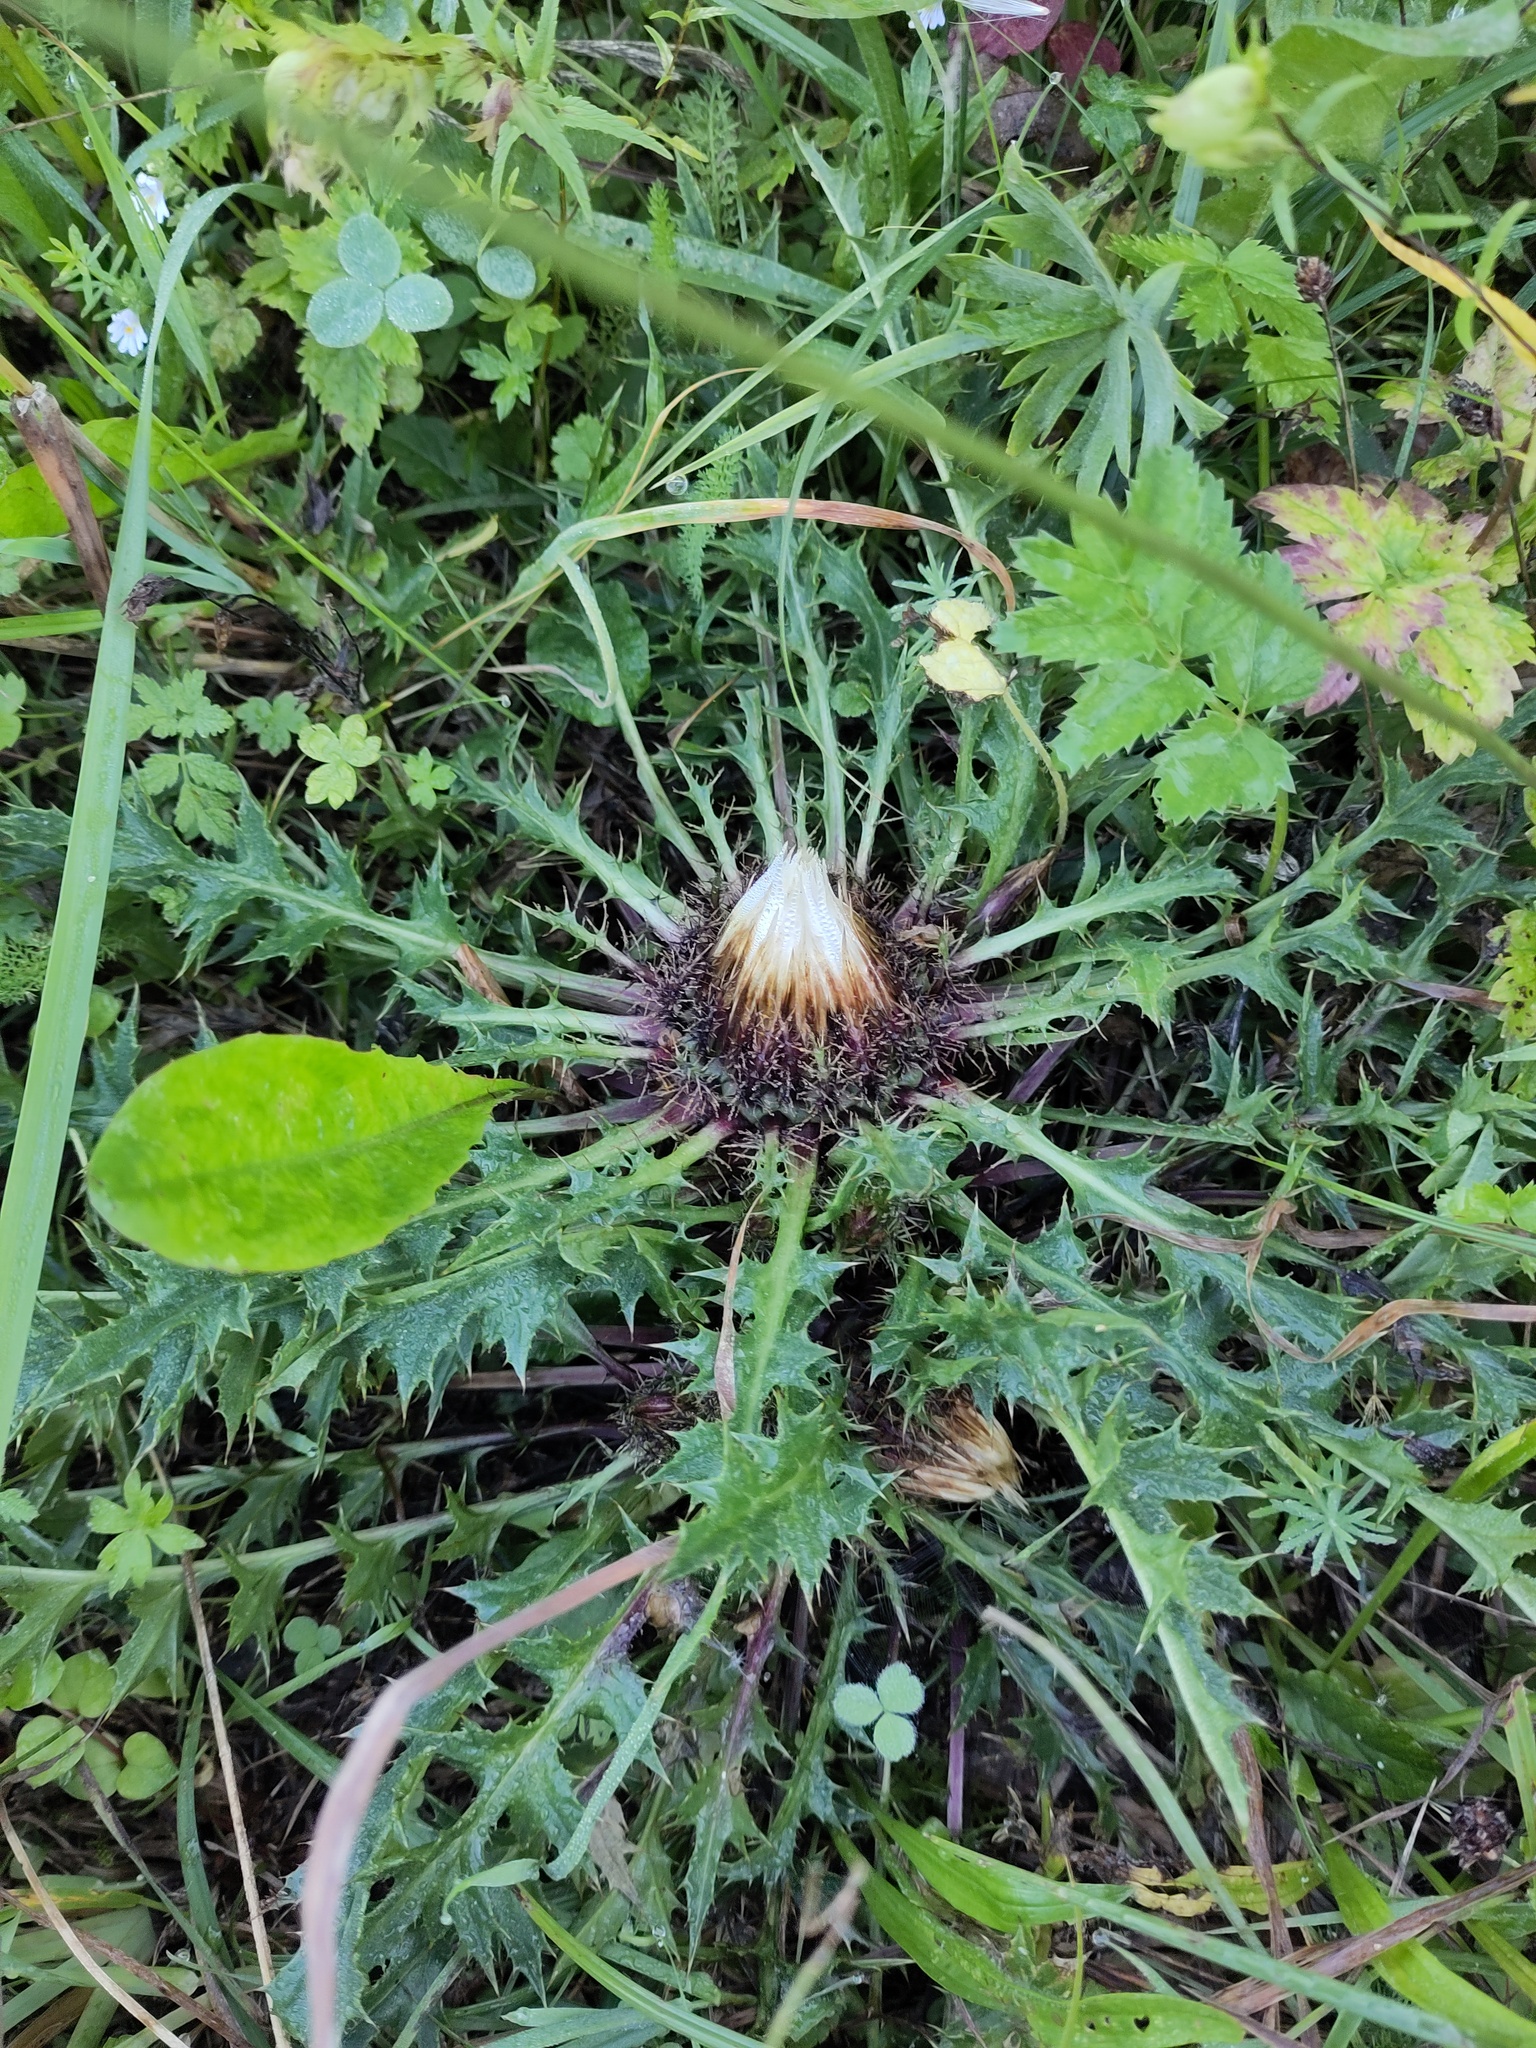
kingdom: Plantae
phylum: Tracheophyta
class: Magnoliopsida
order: Asterales
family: Asteraceae
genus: Carlina
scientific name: Carlina acaulis
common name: Stemless carline thistle
